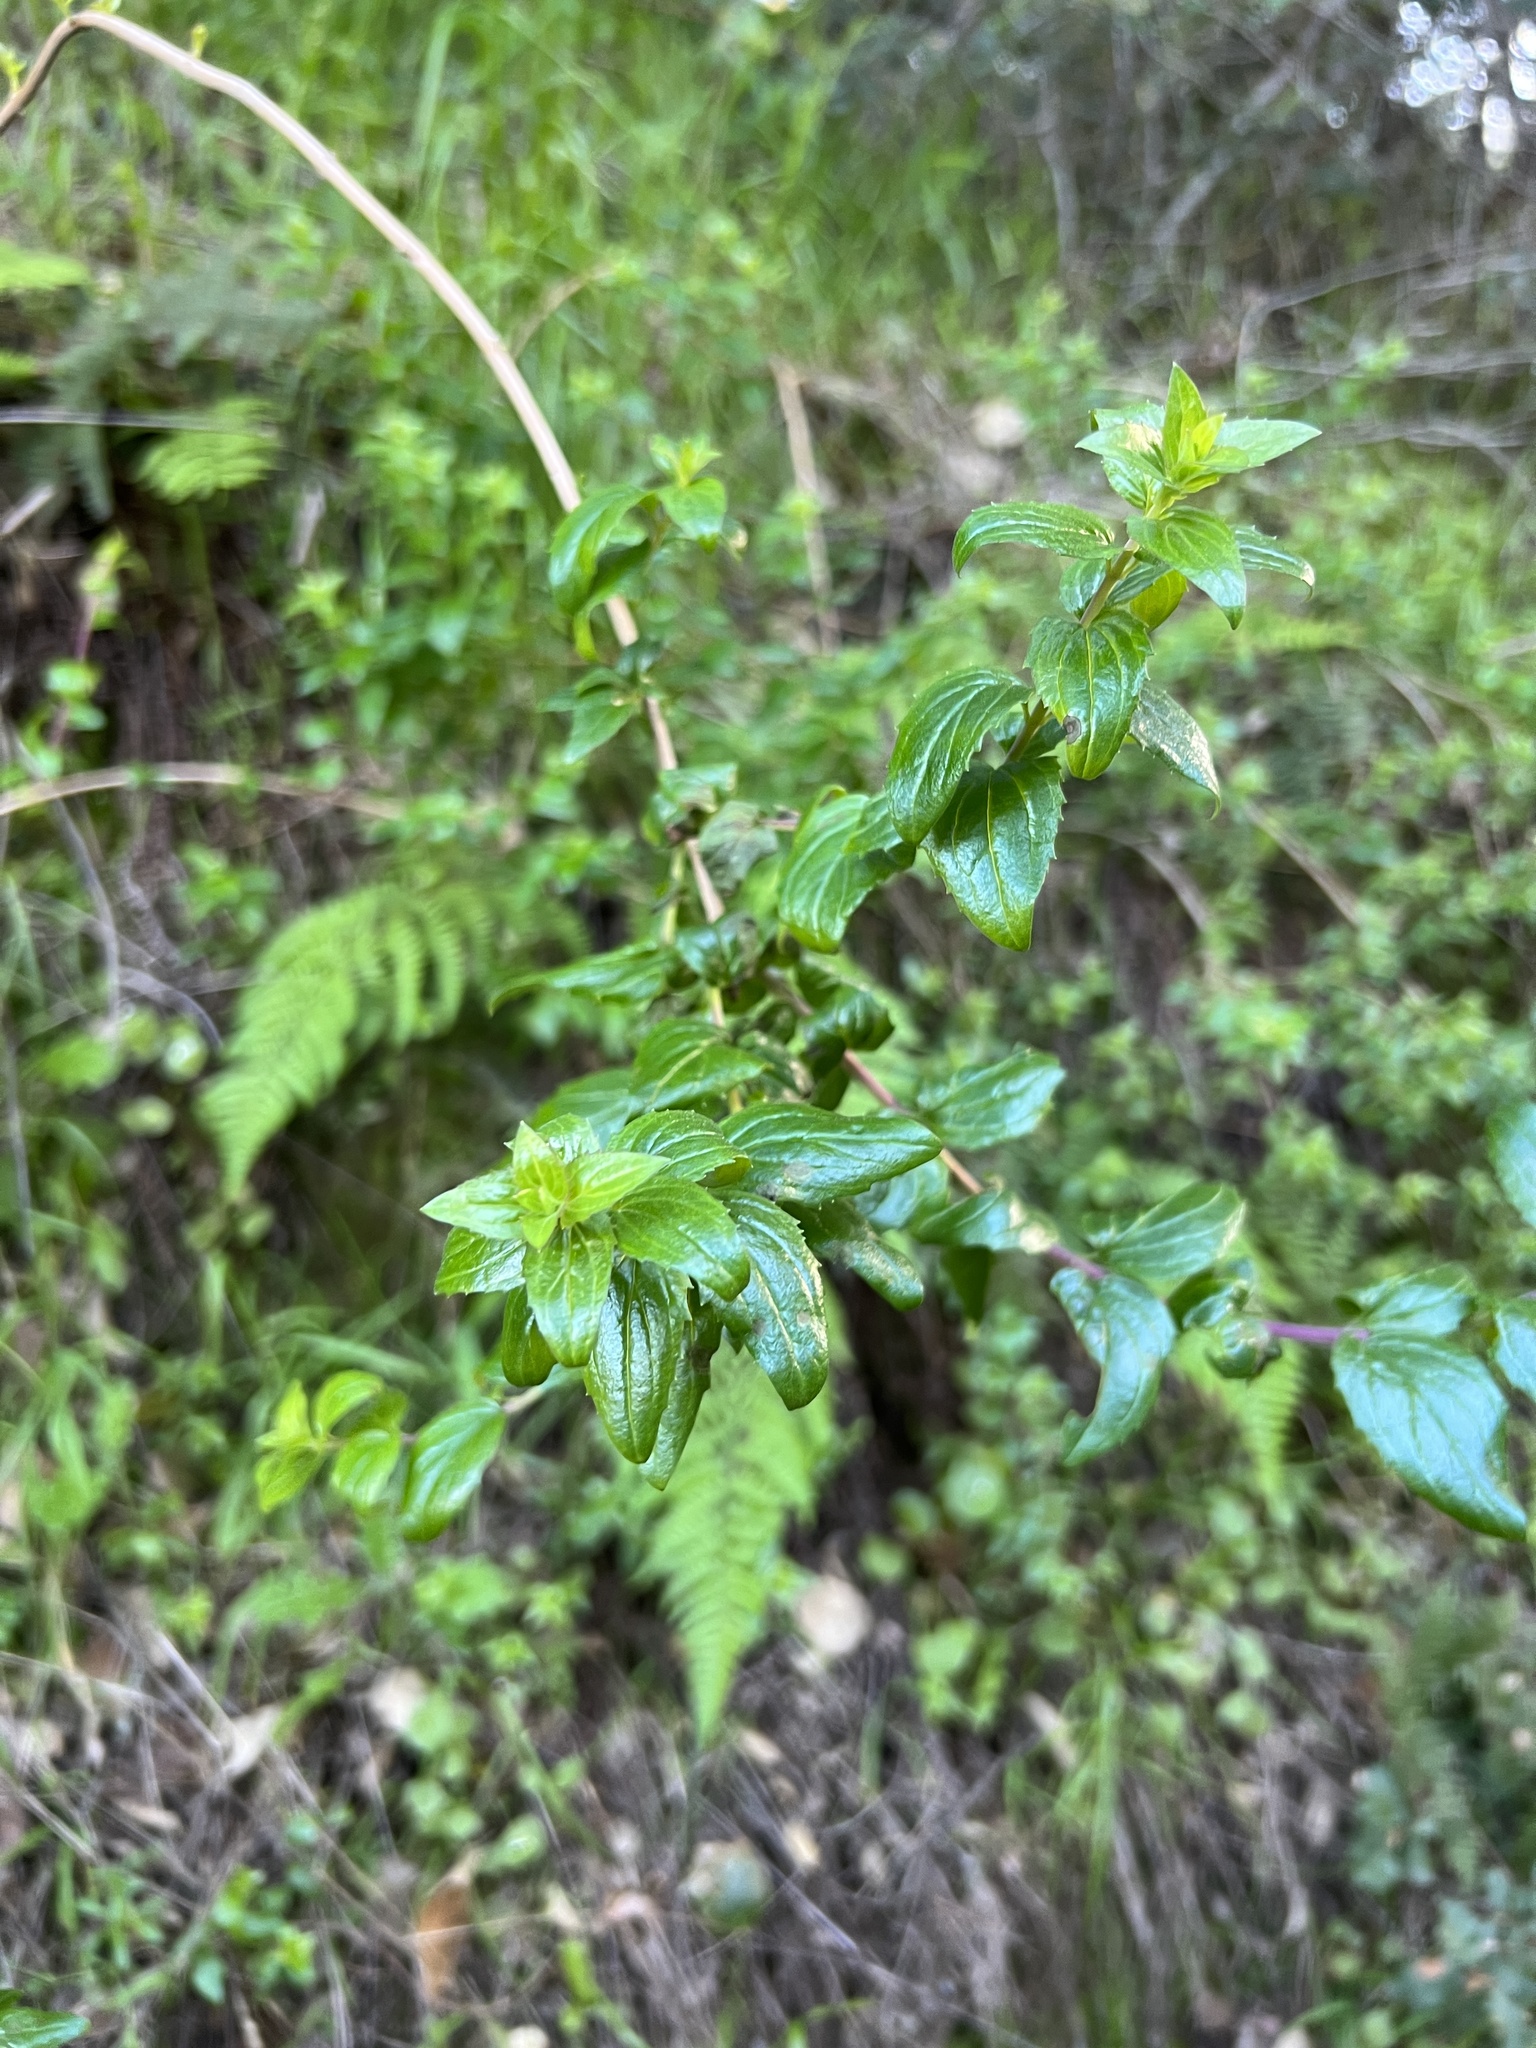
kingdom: Plantae
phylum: Tracheophyta
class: Magnoliopsida
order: Lamiales
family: Plantaginaceae
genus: Keckiella
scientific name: Keckiella cordifolia
